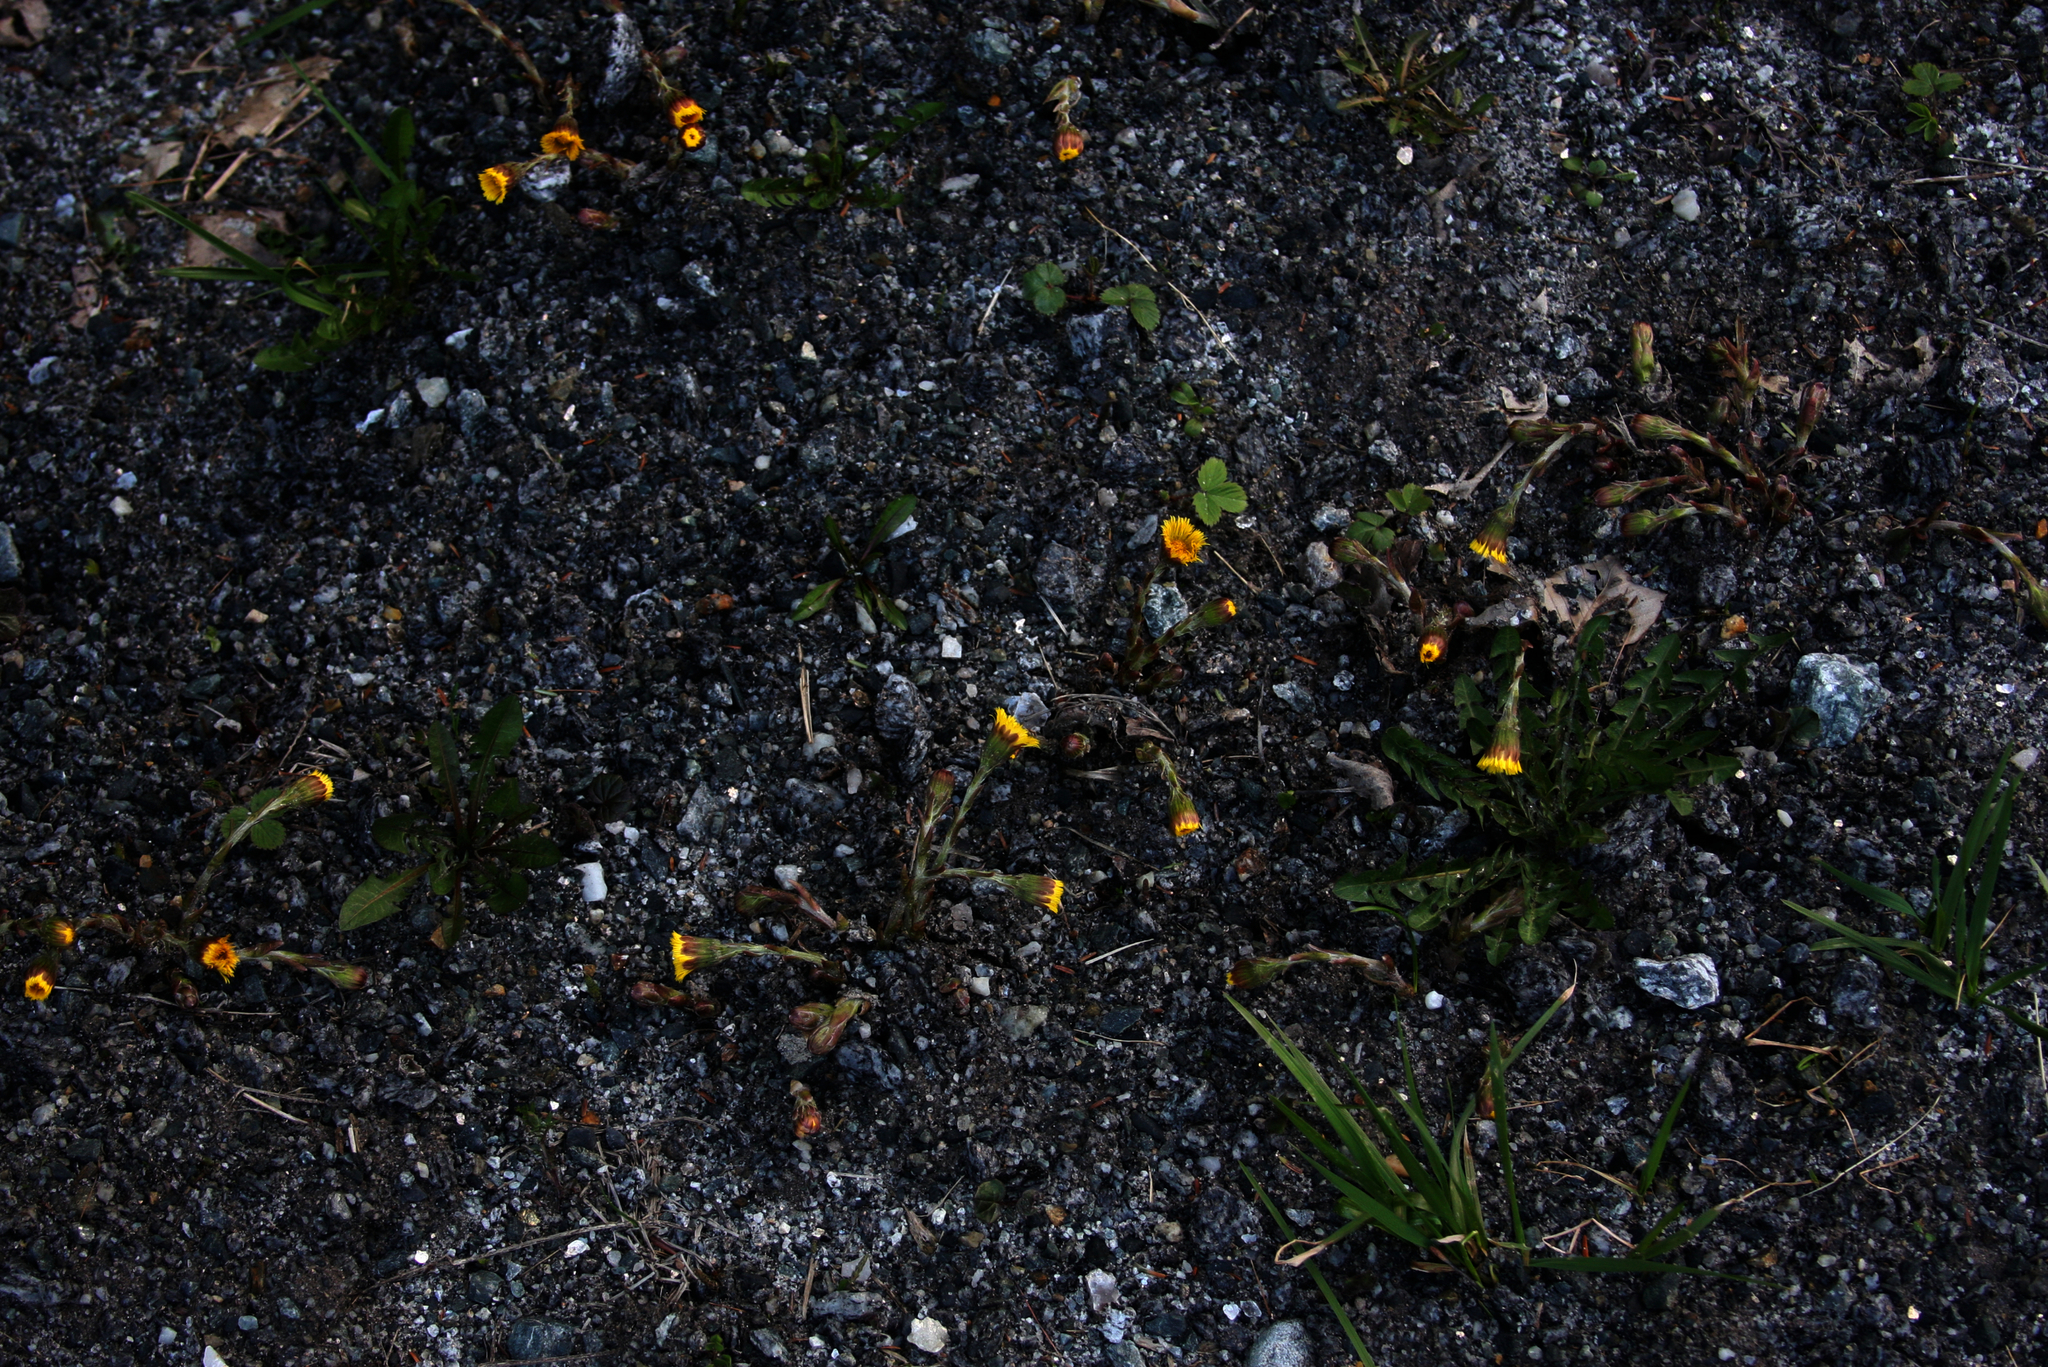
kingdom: Plantae
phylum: Tracheophyta
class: Magnoliopsida
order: Asterales
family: Asteraceae
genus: Tussilago
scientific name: Tussilago farfara
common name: Coltsfoot
